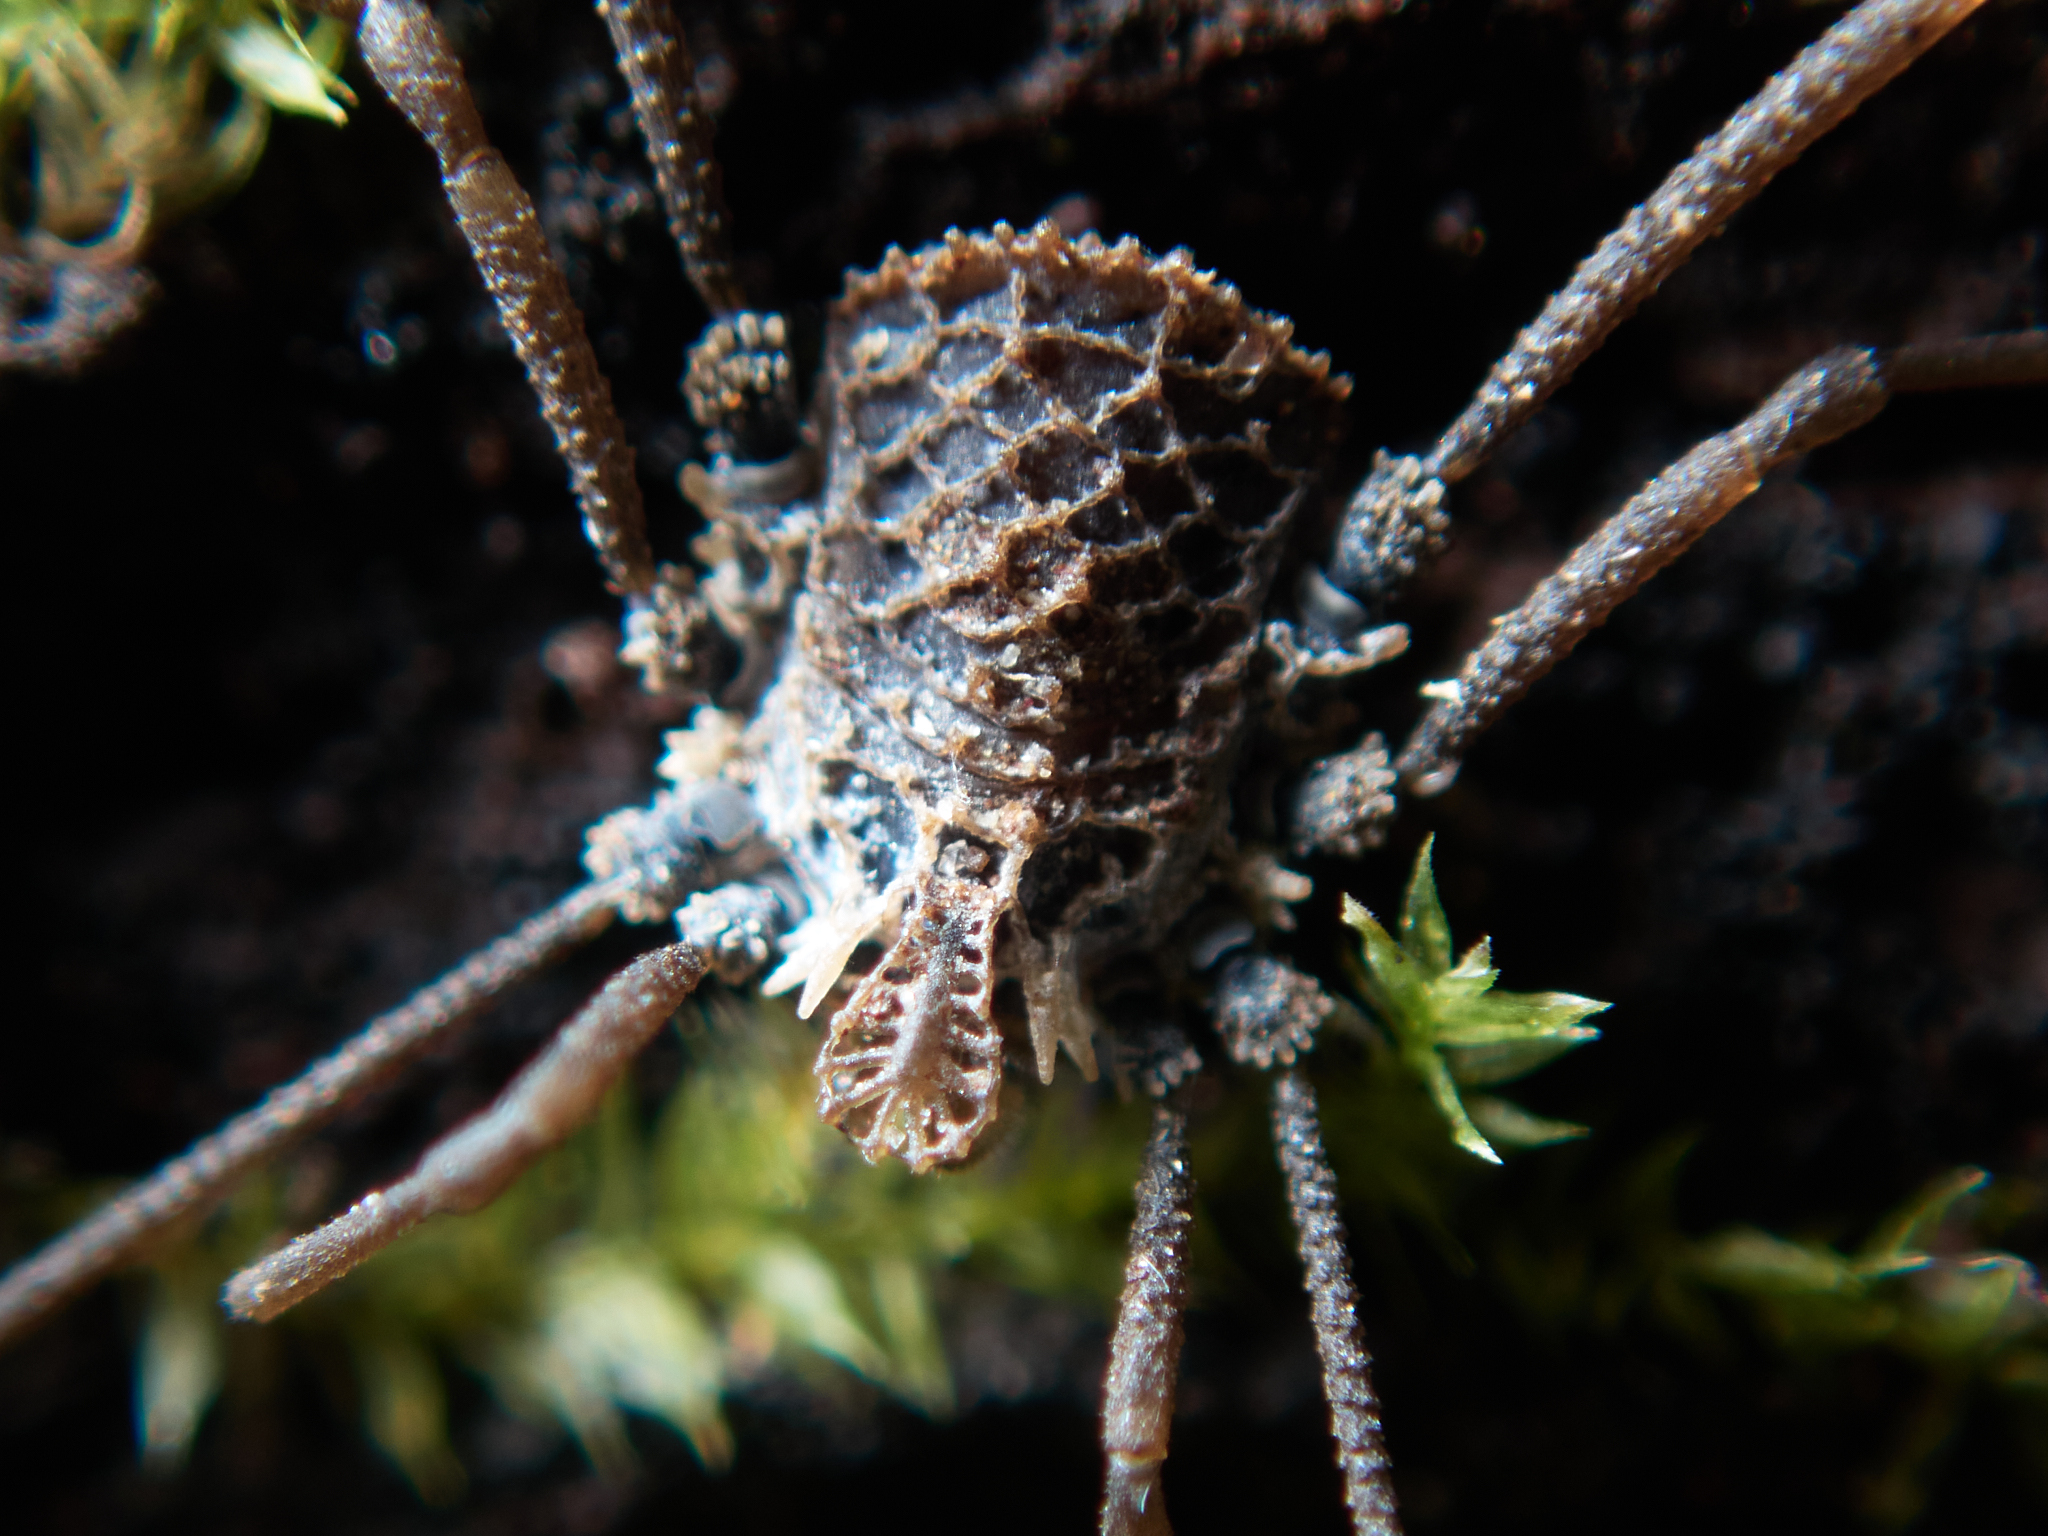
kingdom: Animalia
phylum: Arthropoda
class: Arachnida
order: Opiliones
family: Nemastomatidae
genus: Ortholasma
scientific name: Ortholasma rugosum
